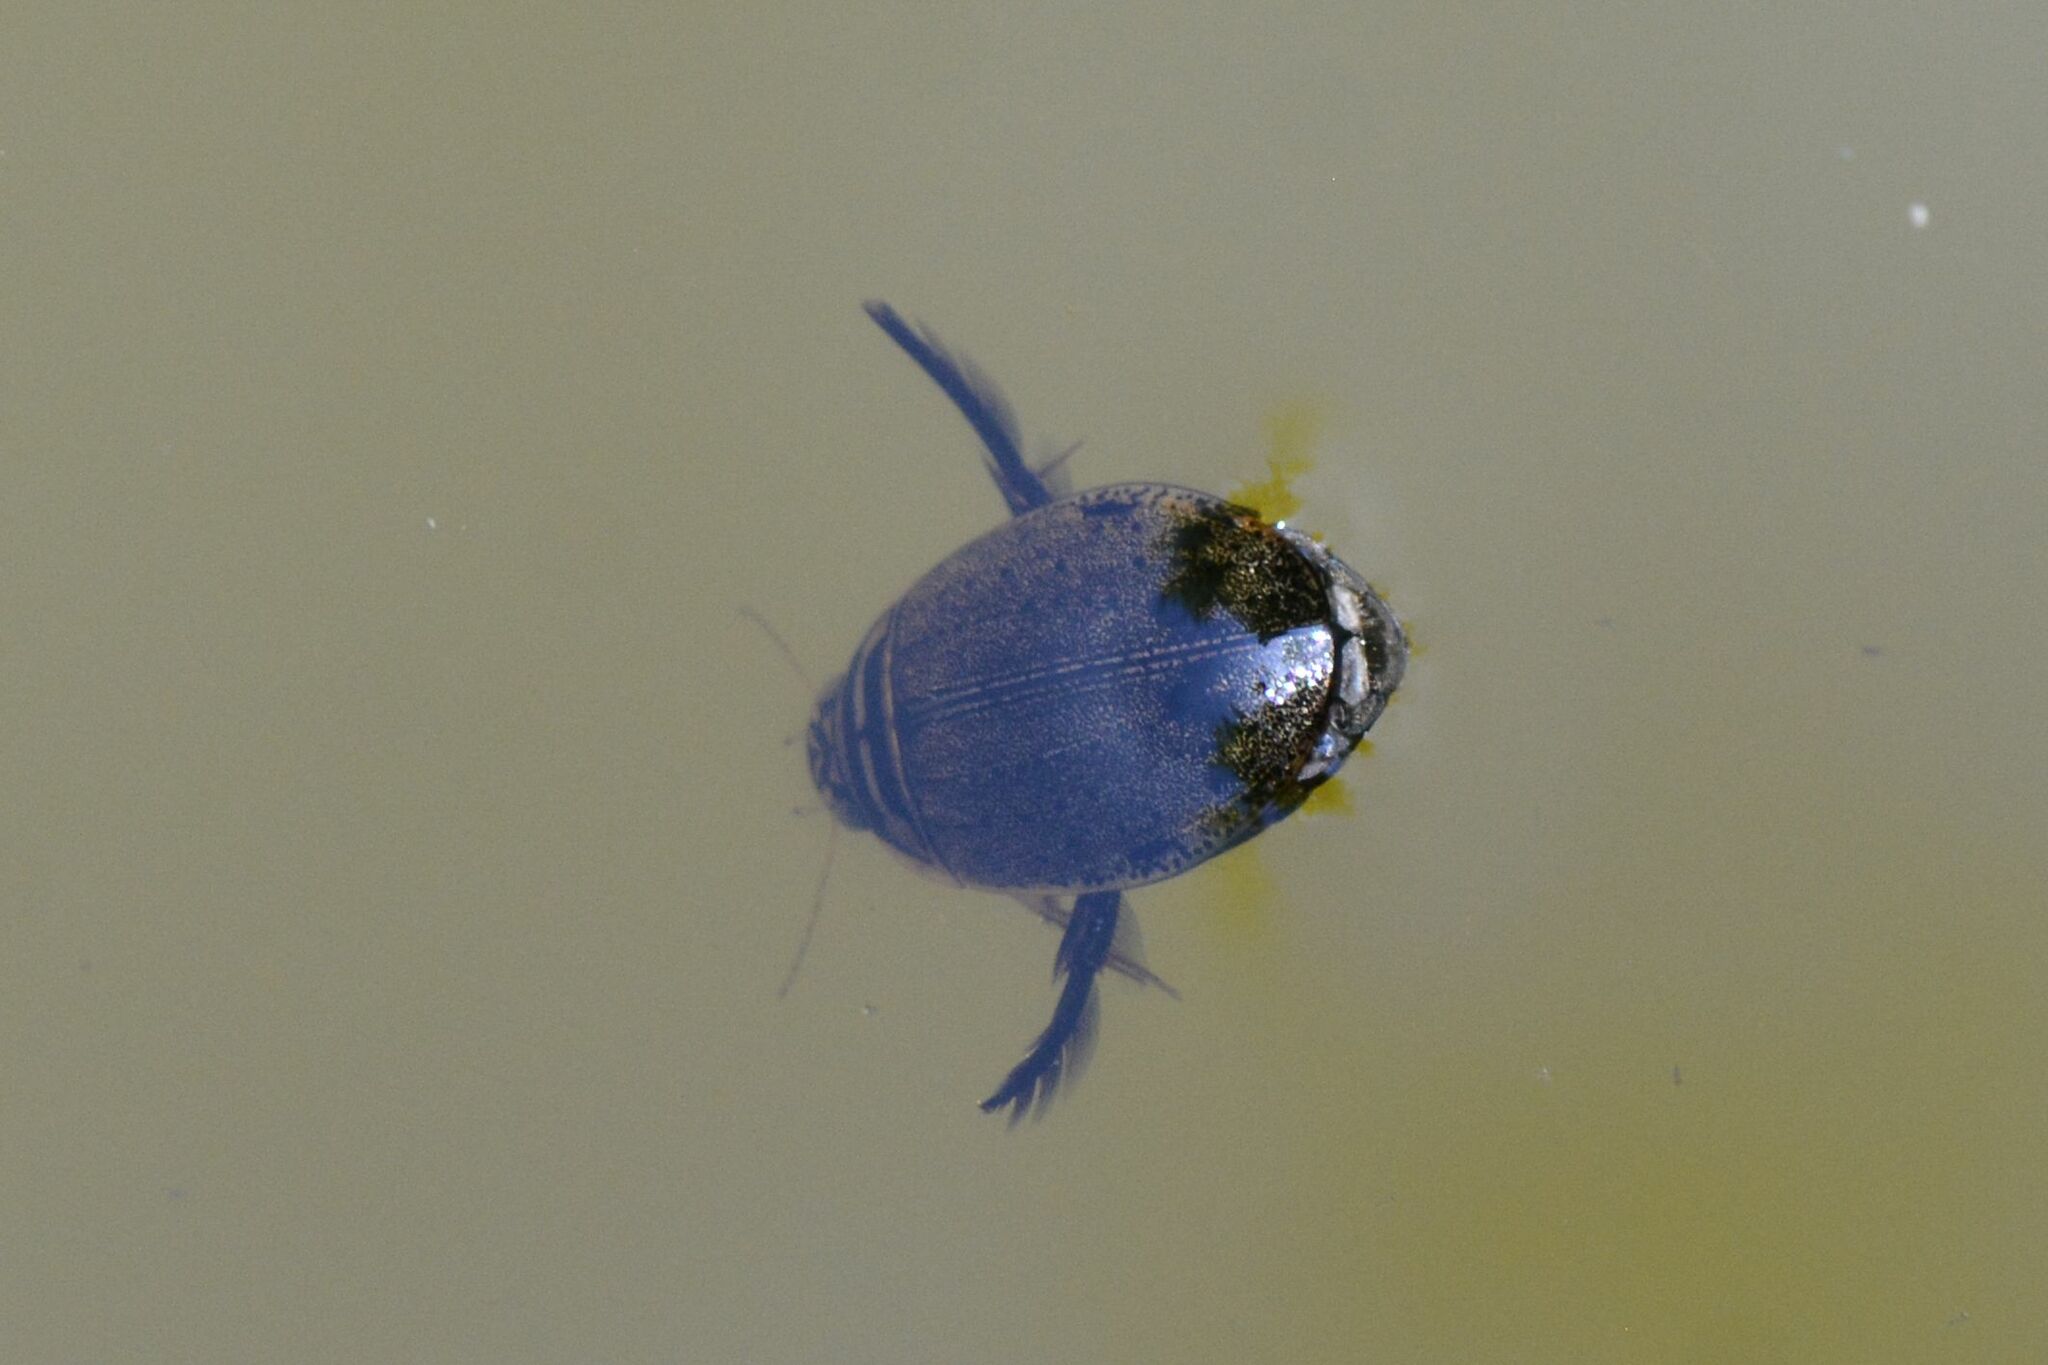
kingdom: Animalia
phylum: Arthropoda
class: Insecta
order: Coleoptera
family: Dytiscidae
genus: Acilius
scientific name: Acilius sulcatus
